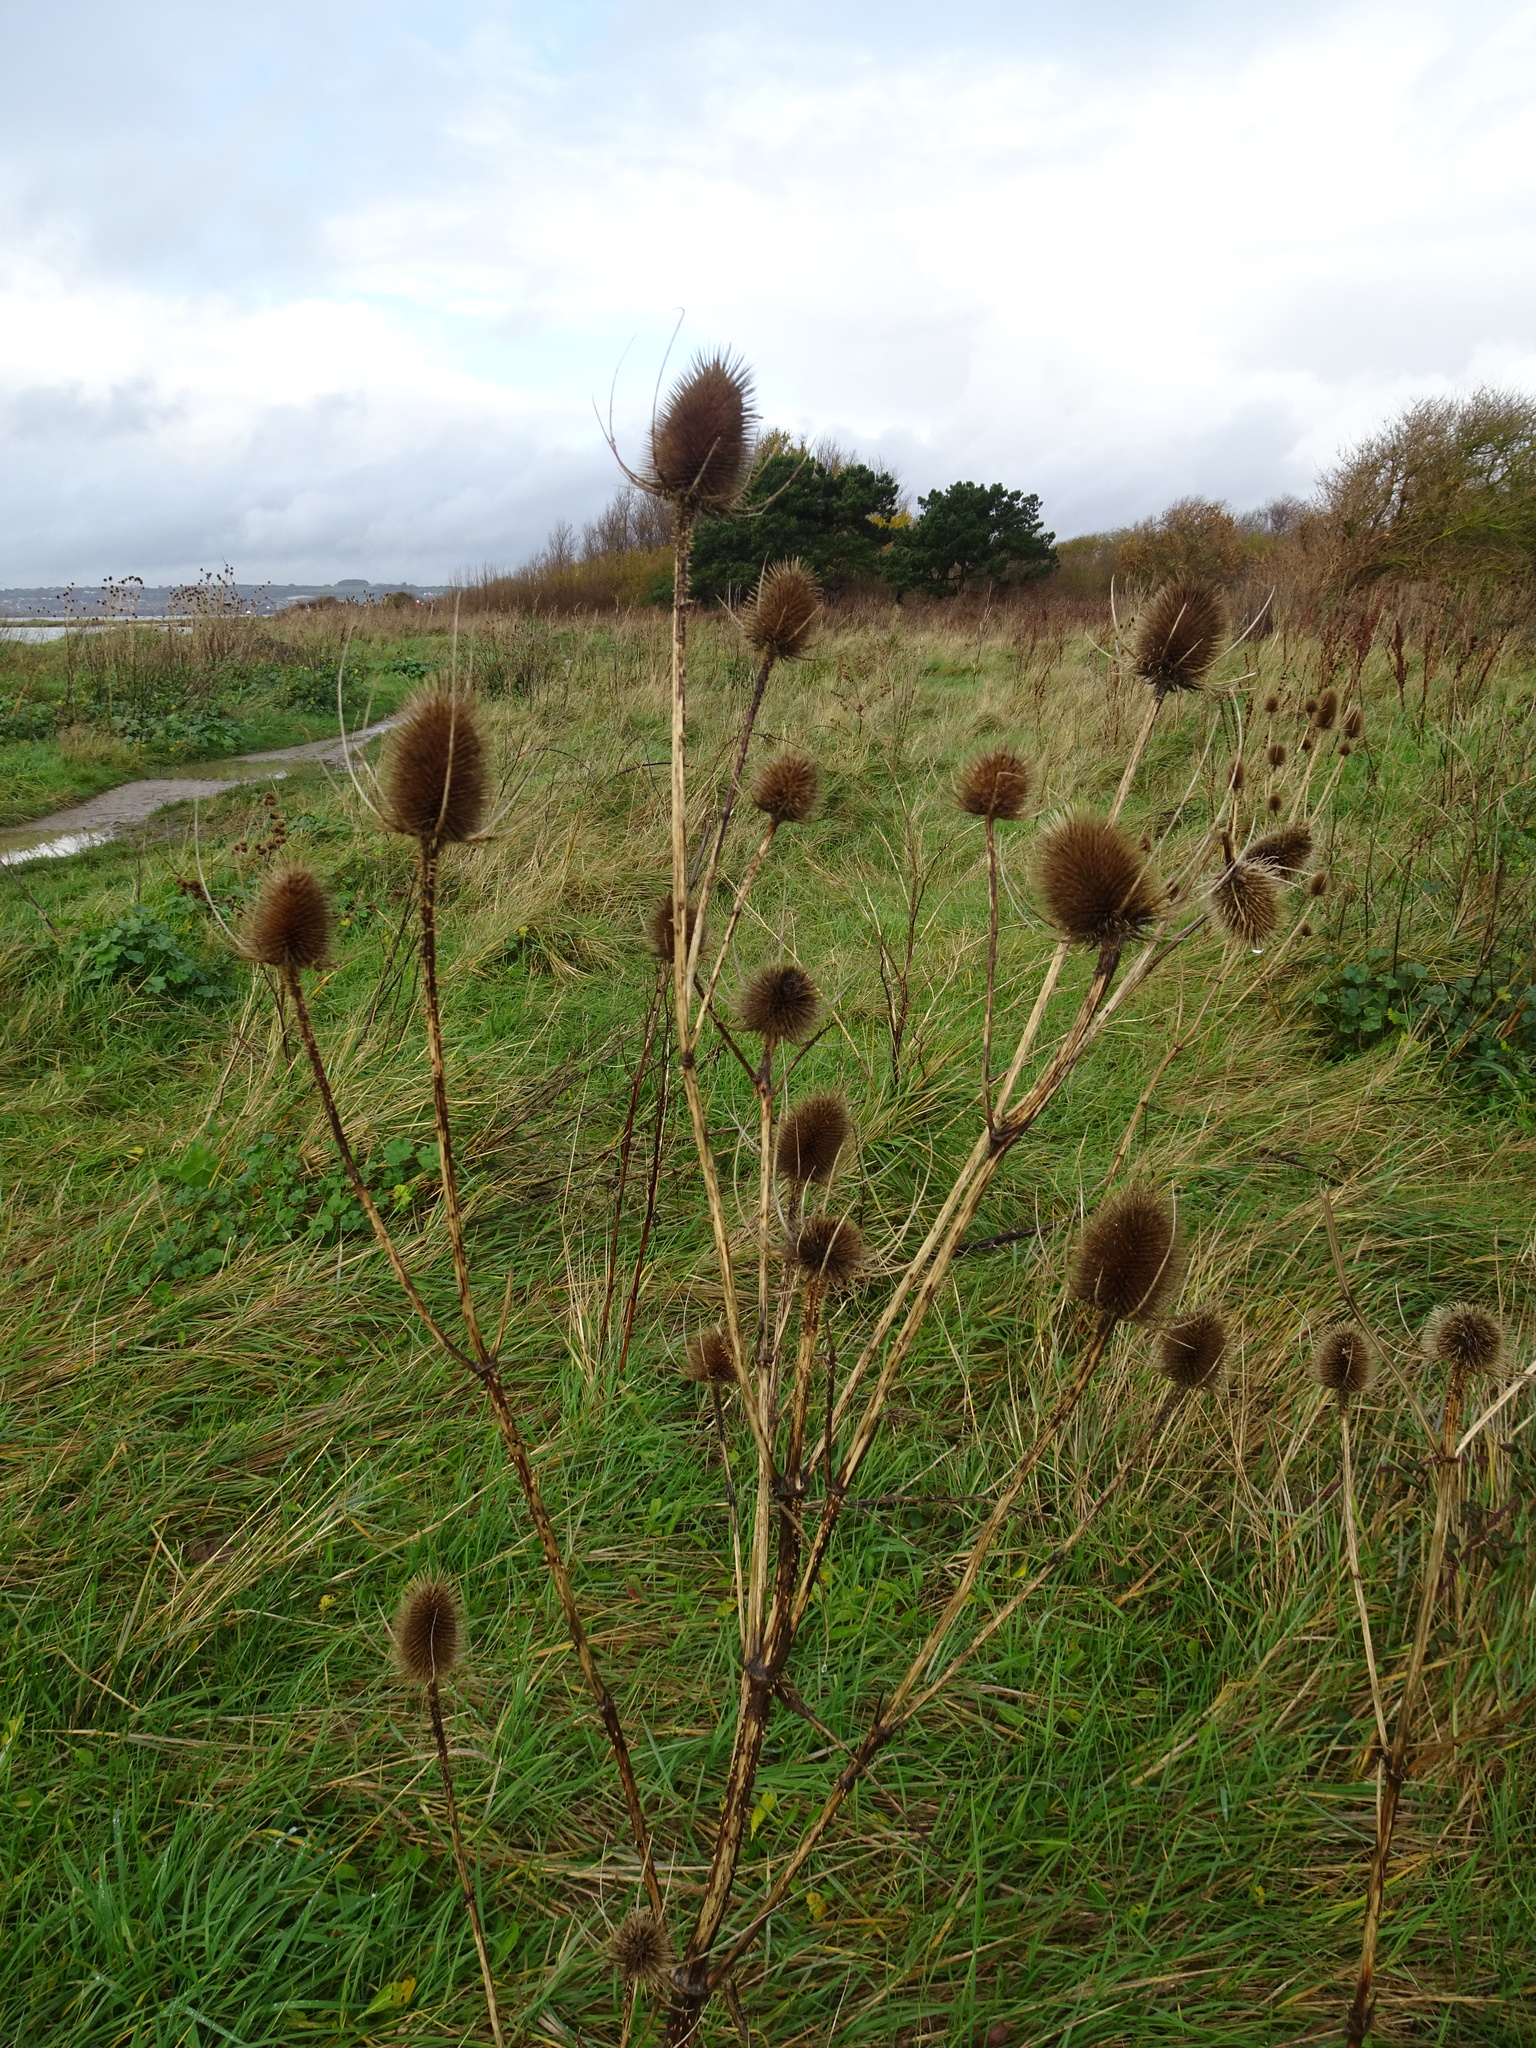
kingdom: Plantae
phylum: Tracheophyta
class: Magnoliopsida
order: Dipsacales
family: Caprifoliaceae
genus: Dipsacus
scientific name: Dipsacus fullonum
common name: Teasel
